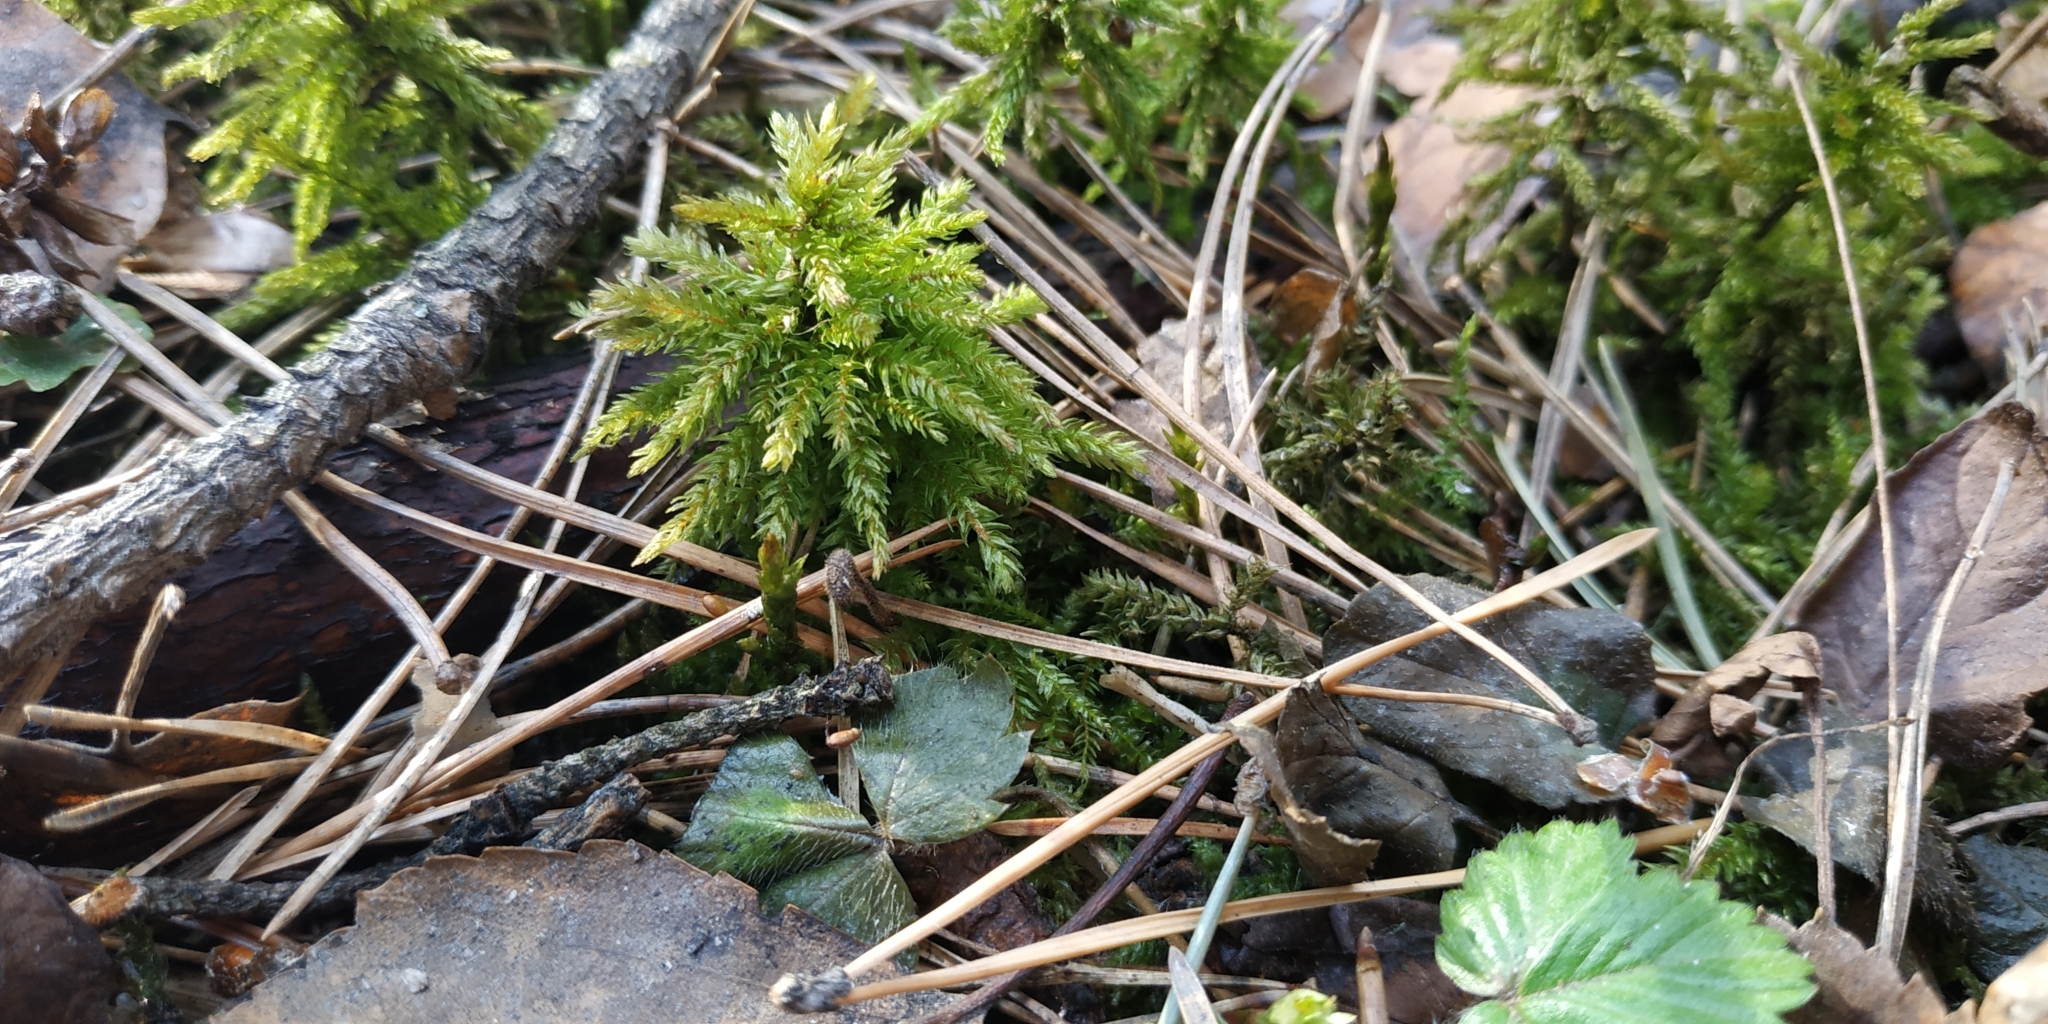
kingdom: Plantae
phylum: Bryophyta
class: Bryopsida
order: Hypnales
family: Climaciaceae
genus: Climacium
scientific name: Climacium dendroides
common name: Northern tree moss
